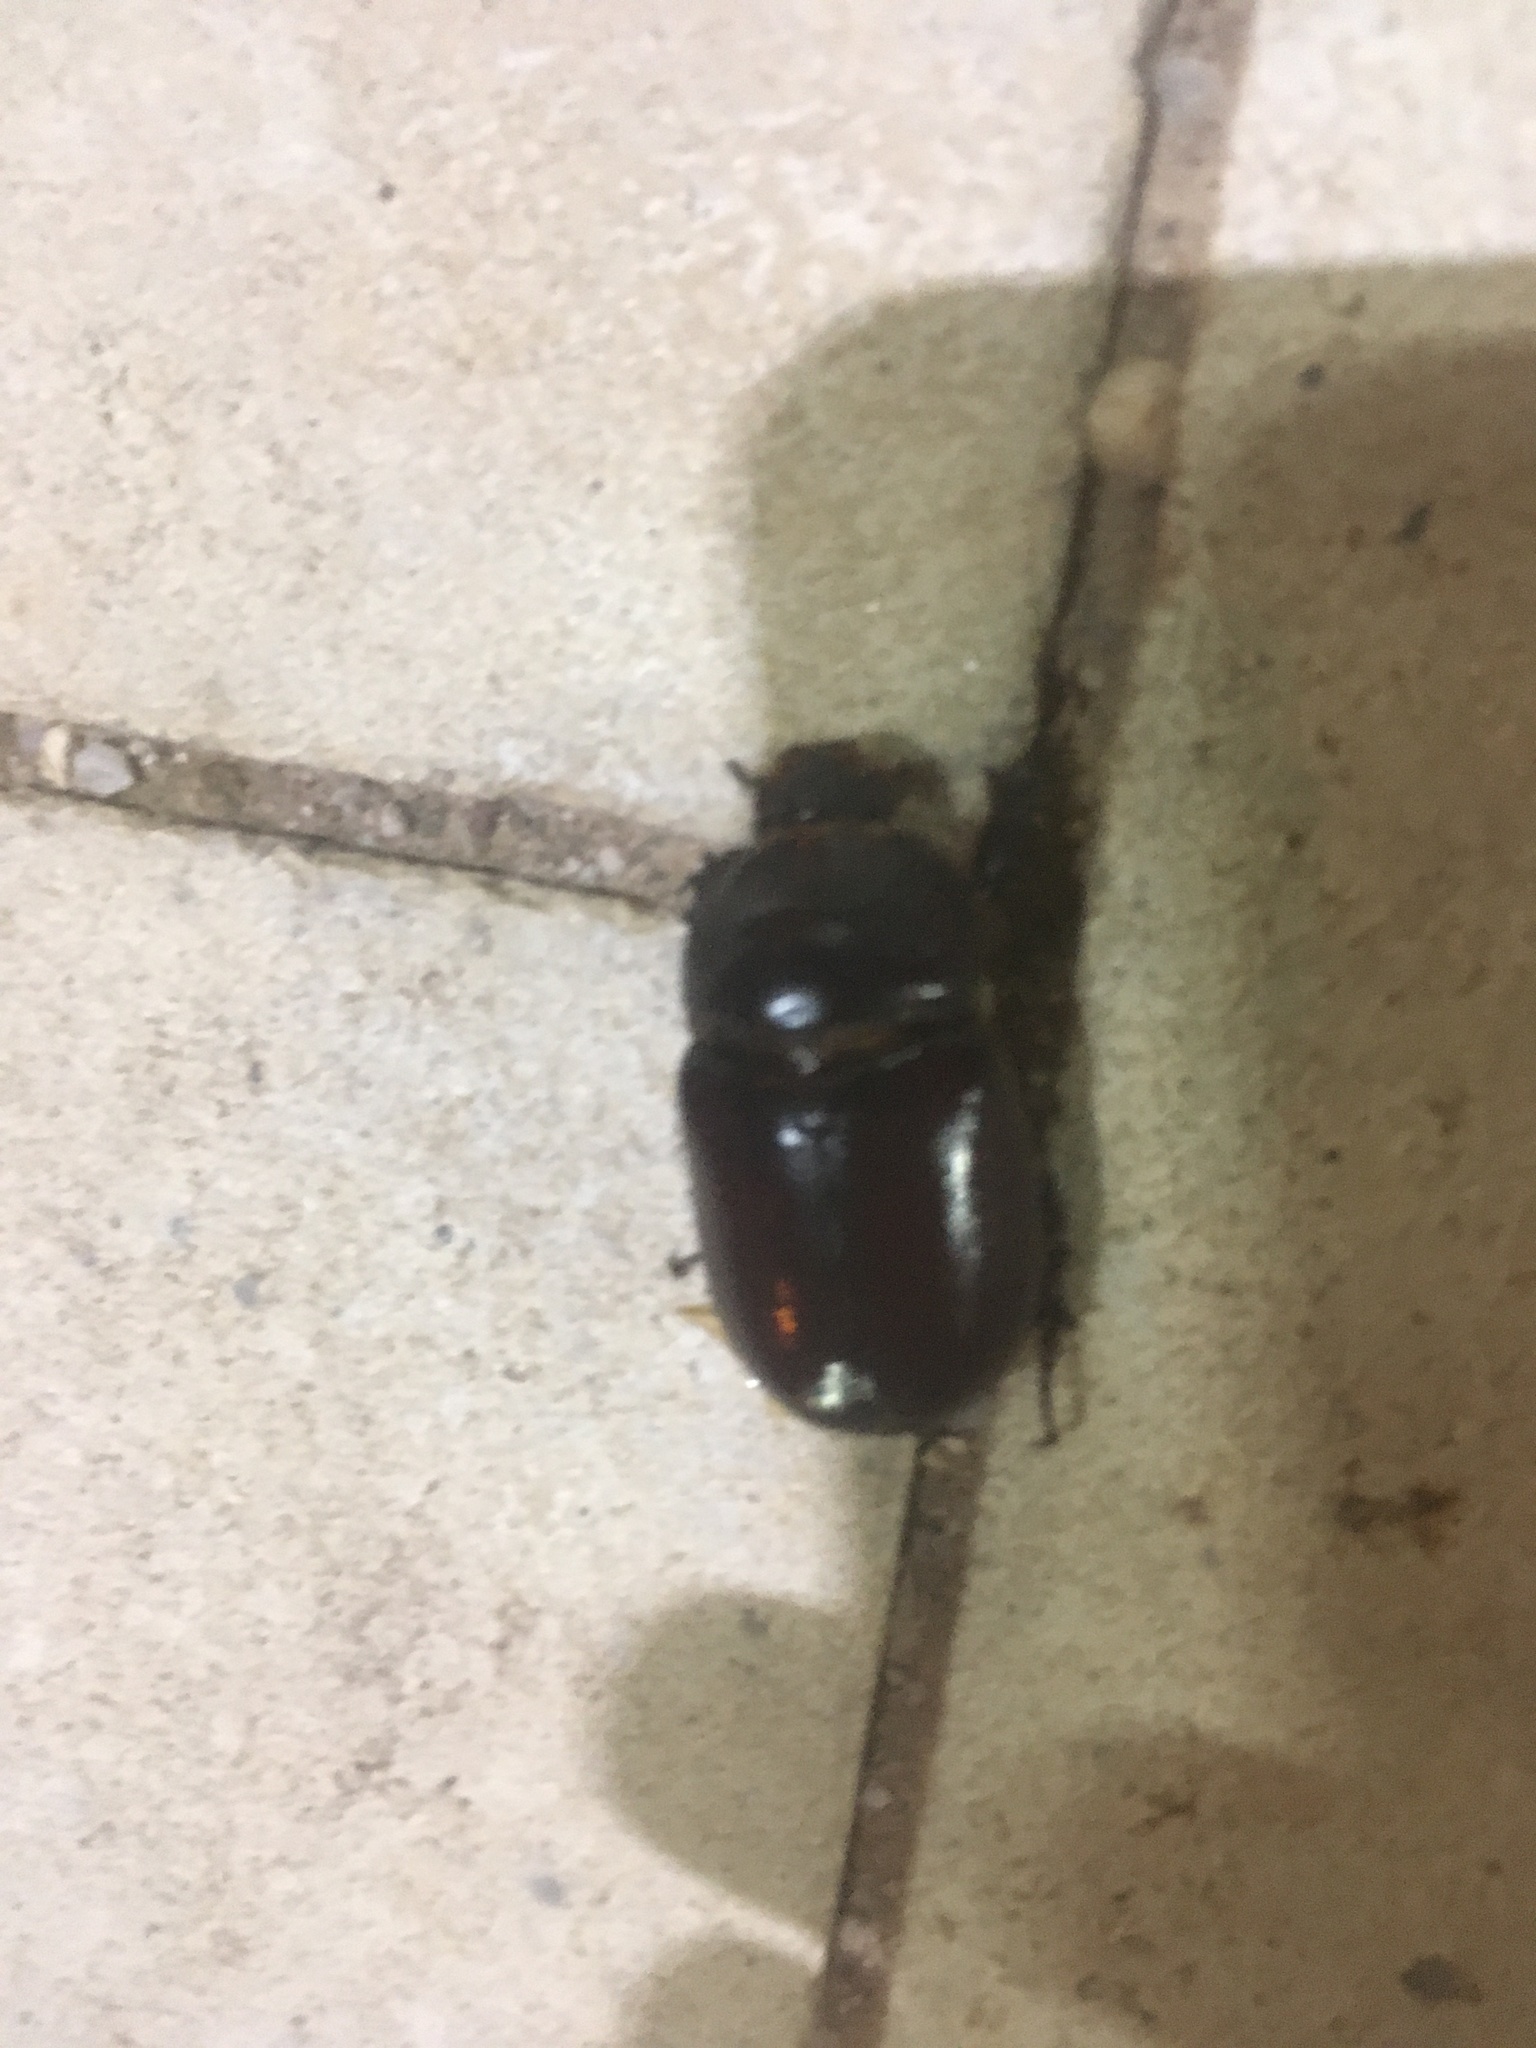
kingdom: Animalia
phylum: Arthropoda
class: Insecta
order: Coleoptera
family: Scarabaeidae
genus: Oryctes
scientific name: Oryctes nasicornis
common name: European rhinoceros beetle
